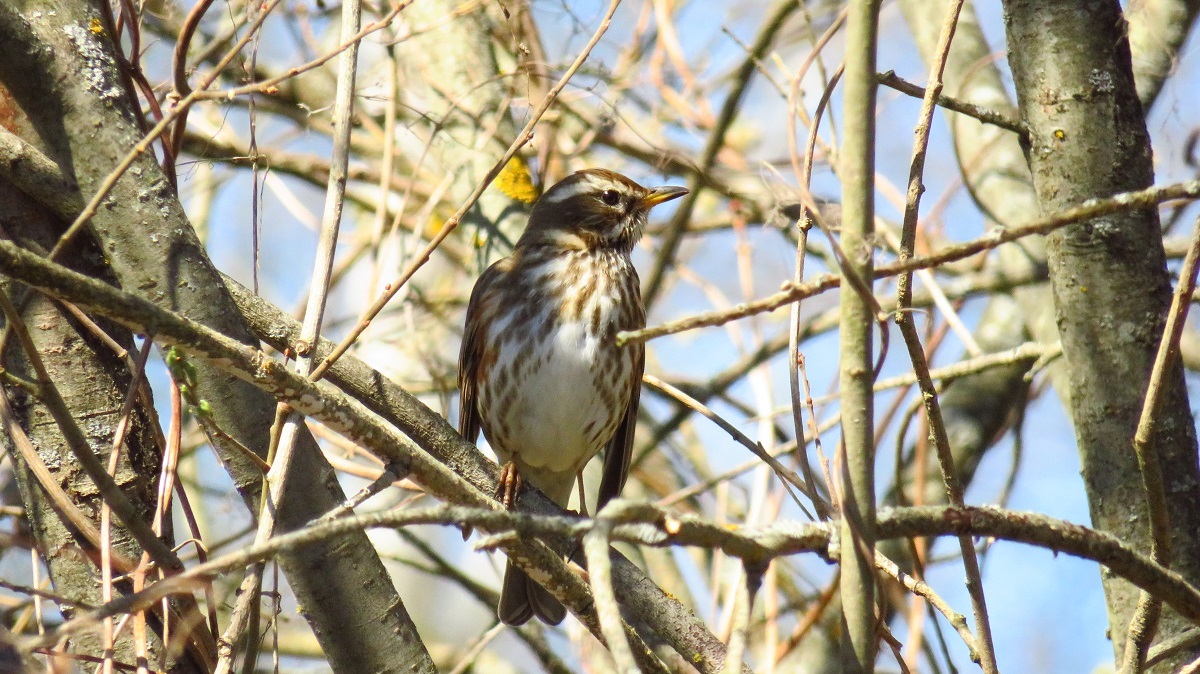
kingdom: Animalia
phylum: Chordata
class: Aves
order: Passeriformes
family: Turdidae
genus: Turdus
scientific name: Turdus iliacus
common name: Redwing
